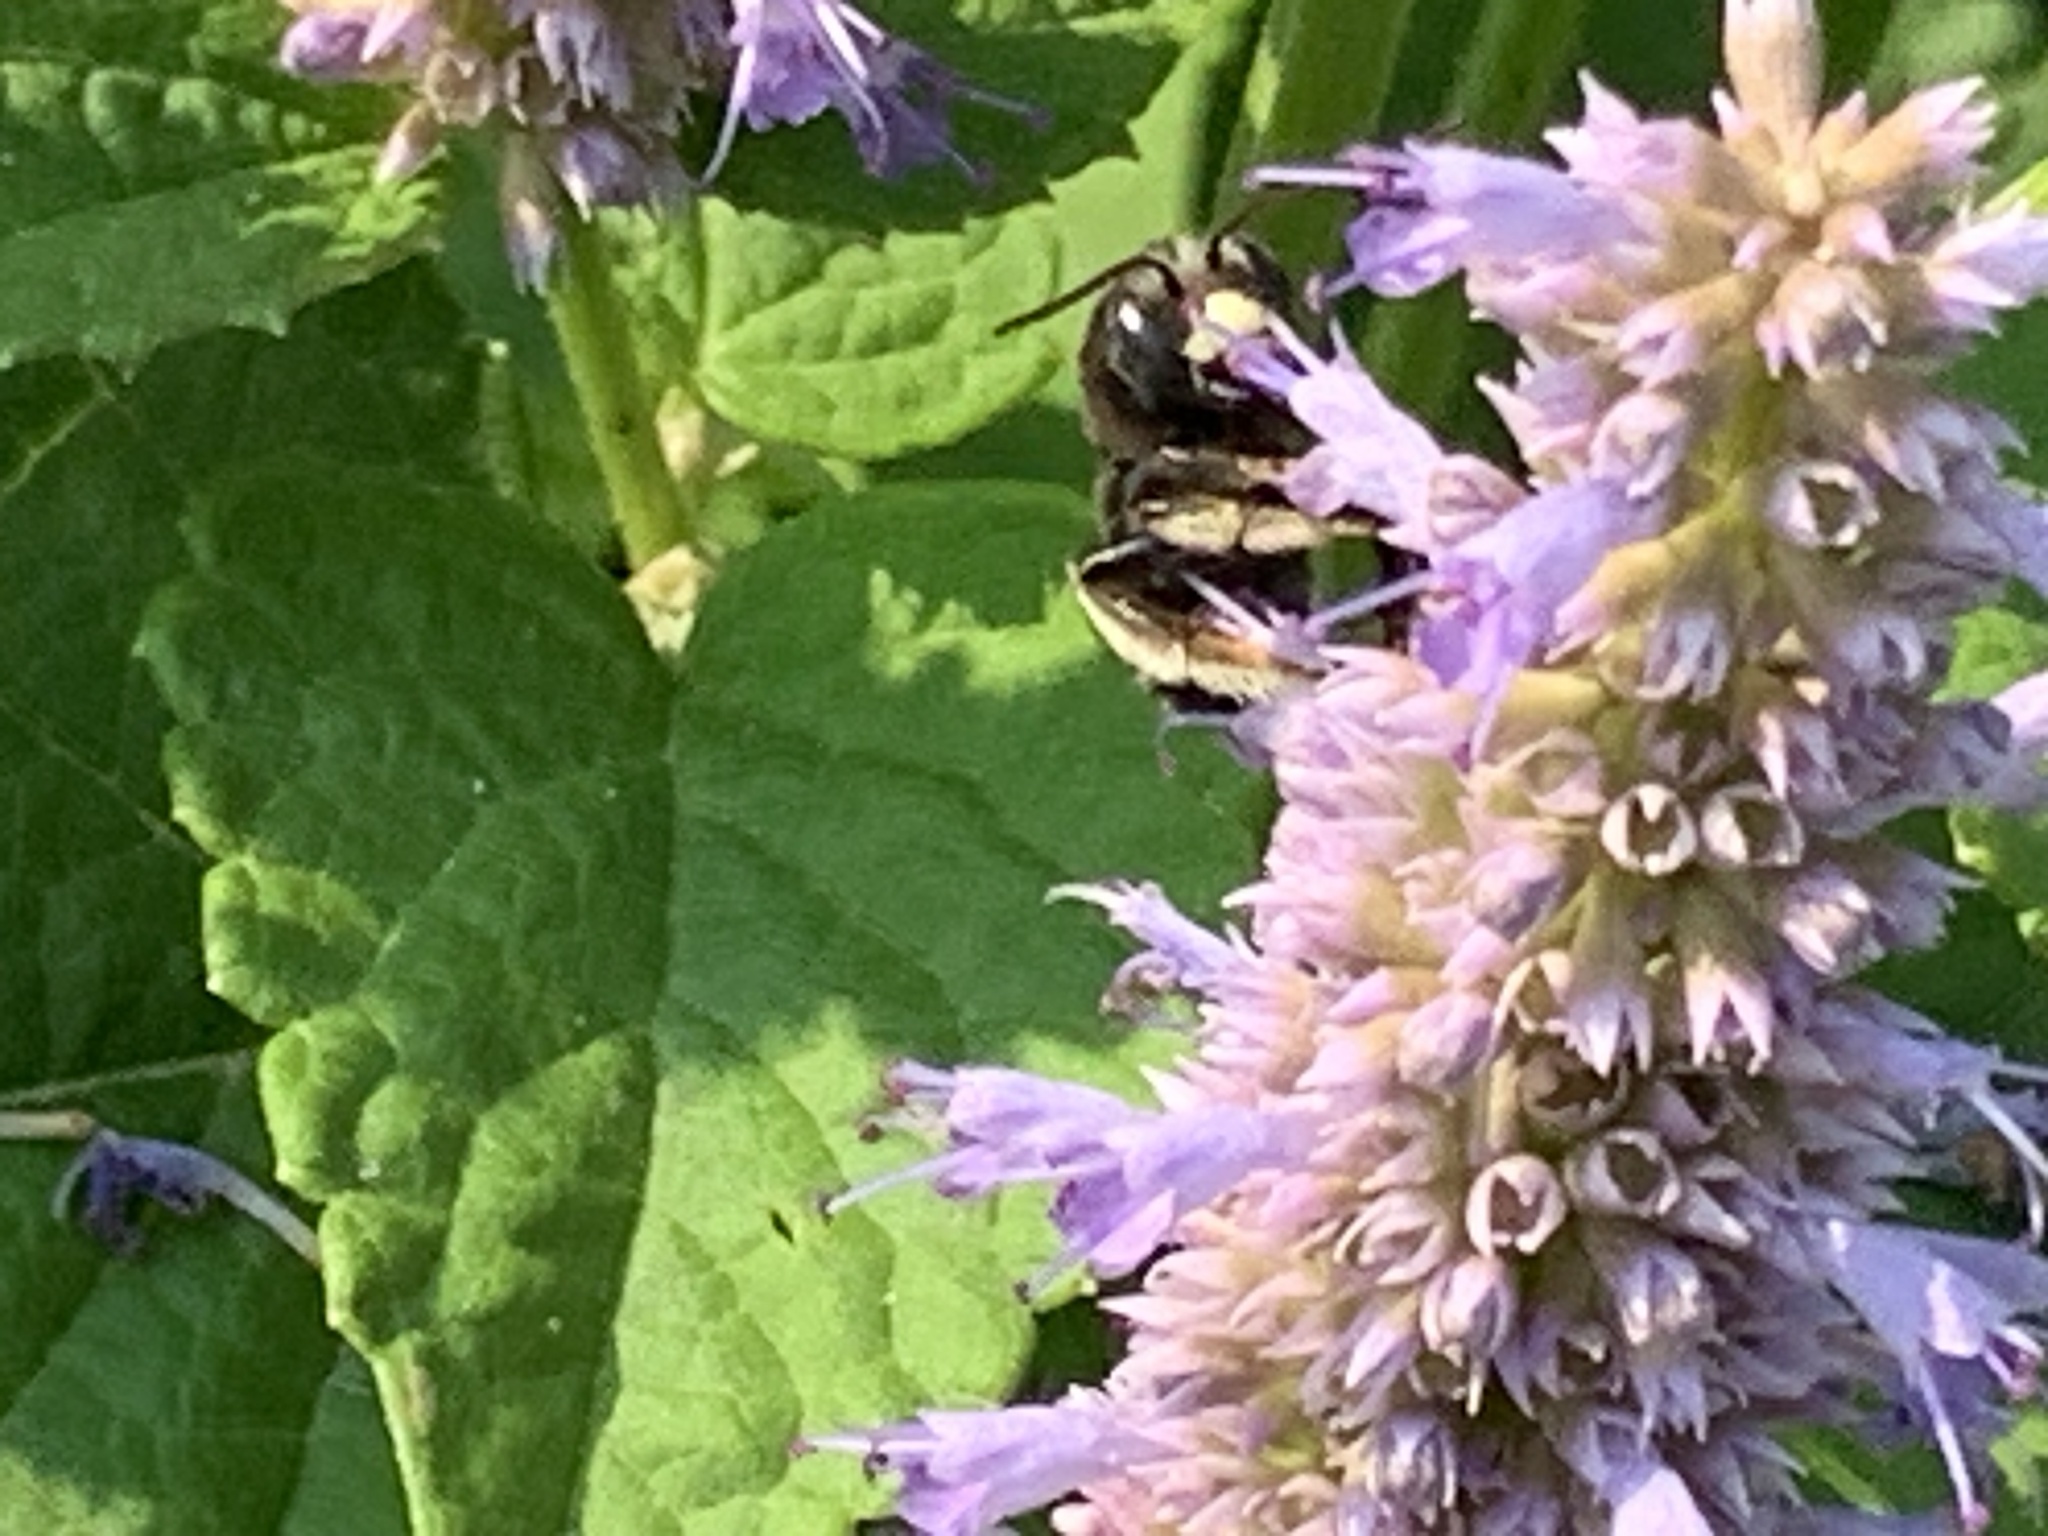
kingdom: Animalia
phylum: Arthropoda
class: Insecta
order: Hymenoptera
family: Apidae
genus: Melissodes
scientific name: Melissodes bimaculatus
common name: Two-spotted long-horned bee
